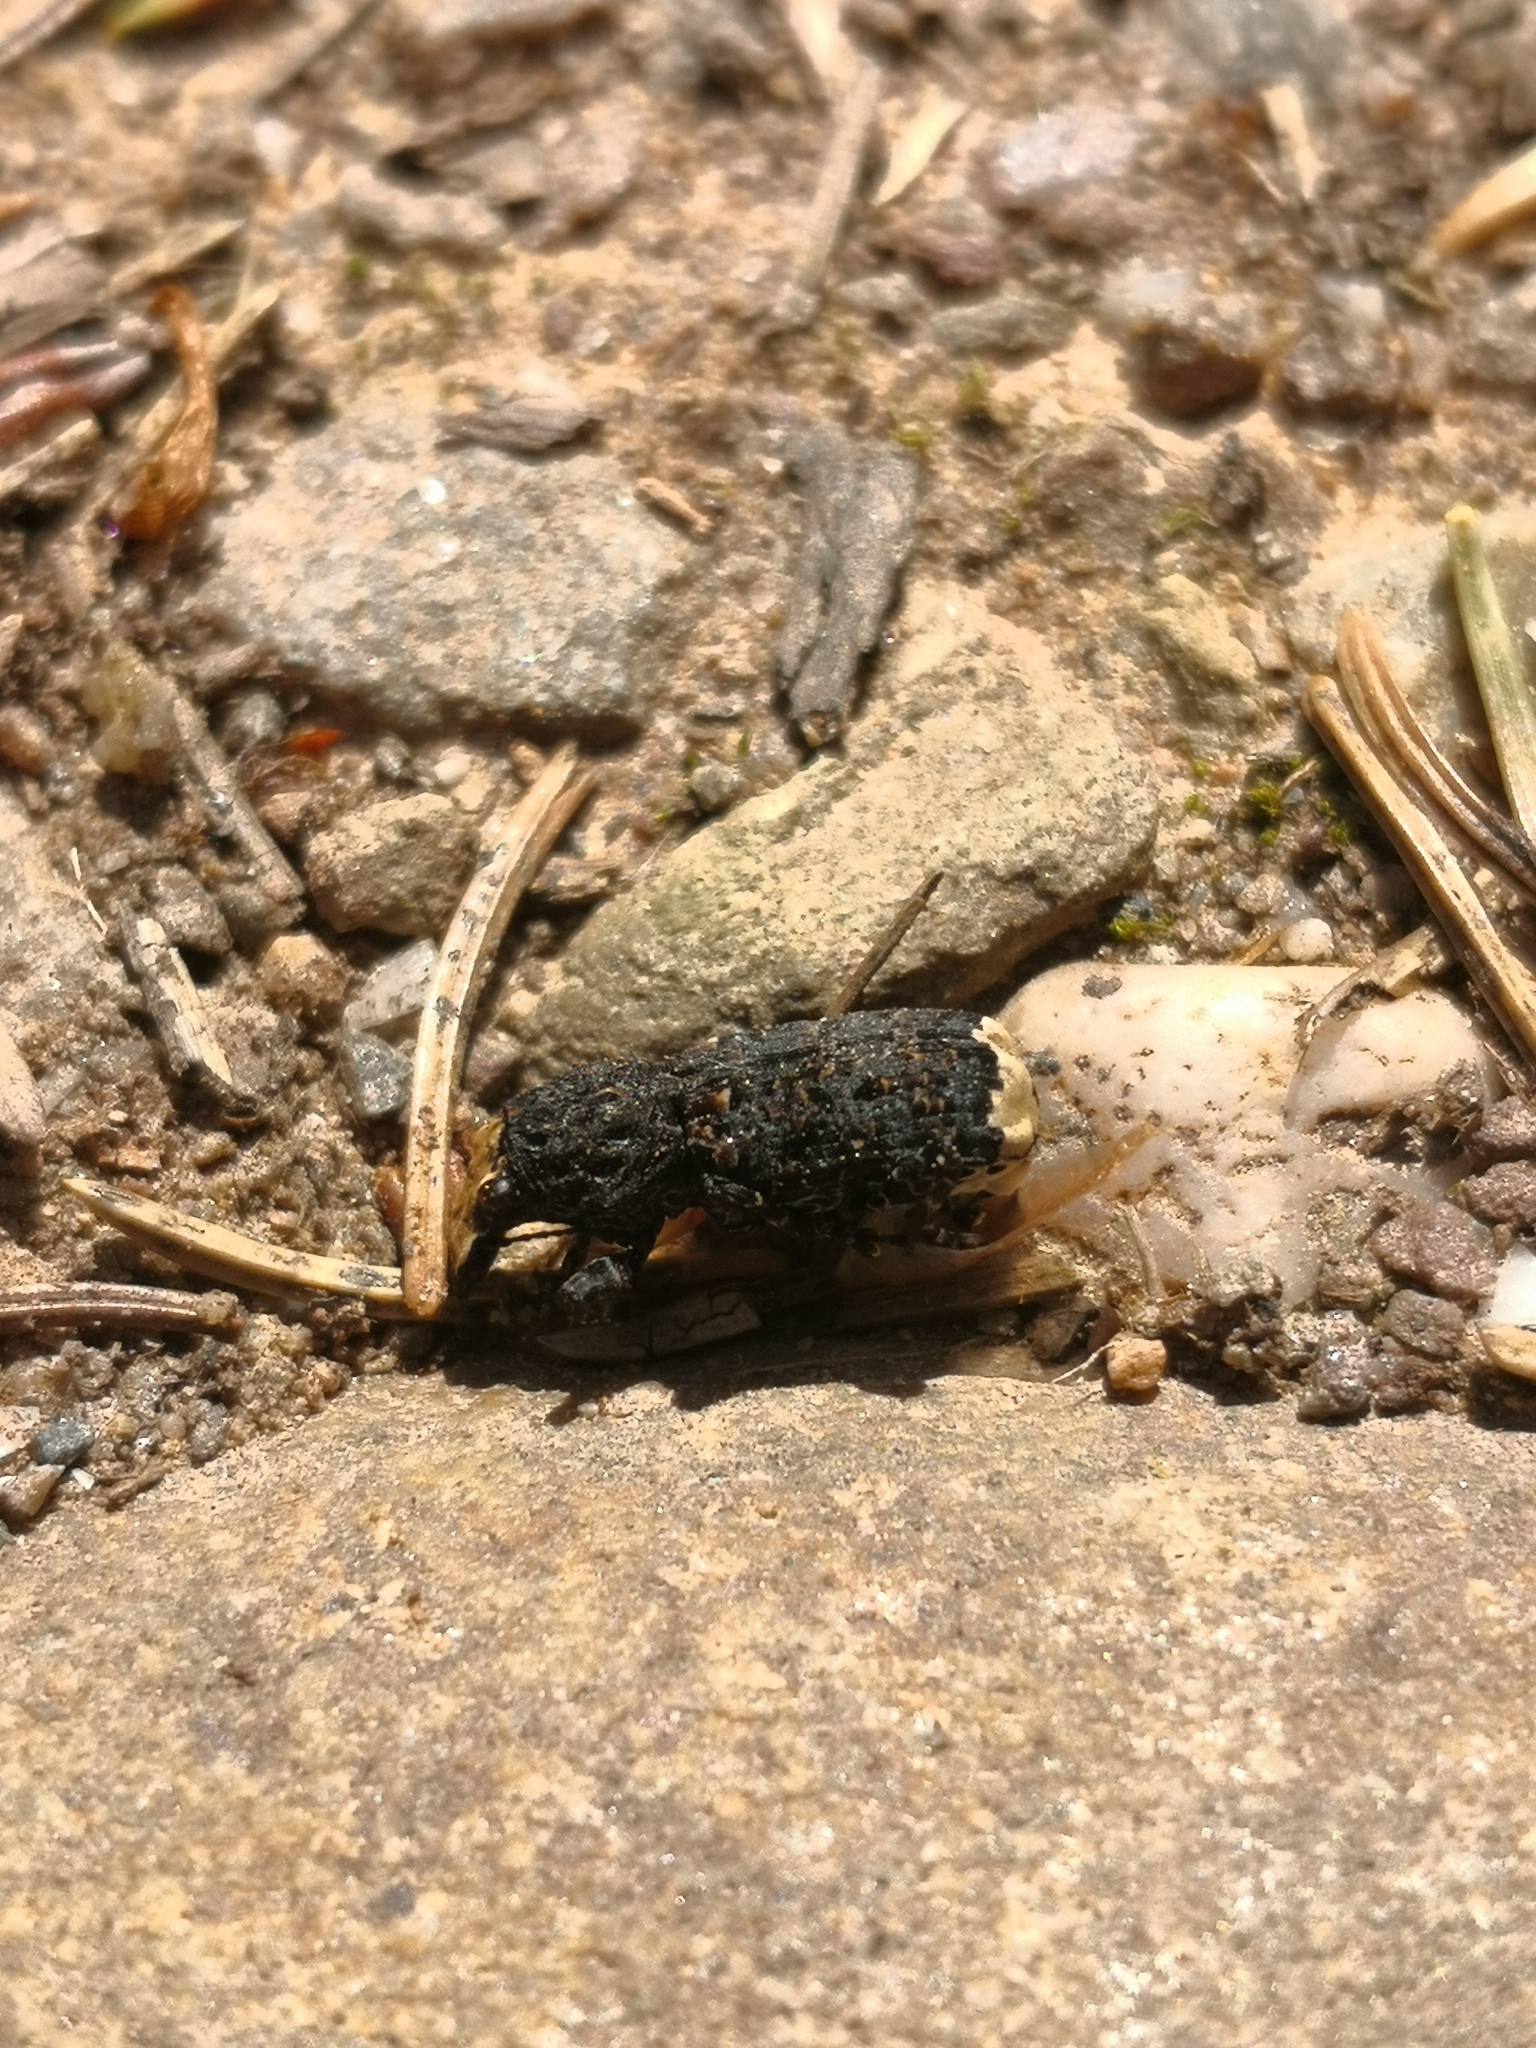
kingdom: Animalia
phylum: Arthropoda
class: Insecta
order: Coleoptera
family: Anthribidae
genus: Platyrhinus
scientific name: Platyrhinus resinosus
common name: Cramp-ball fungus weevil
